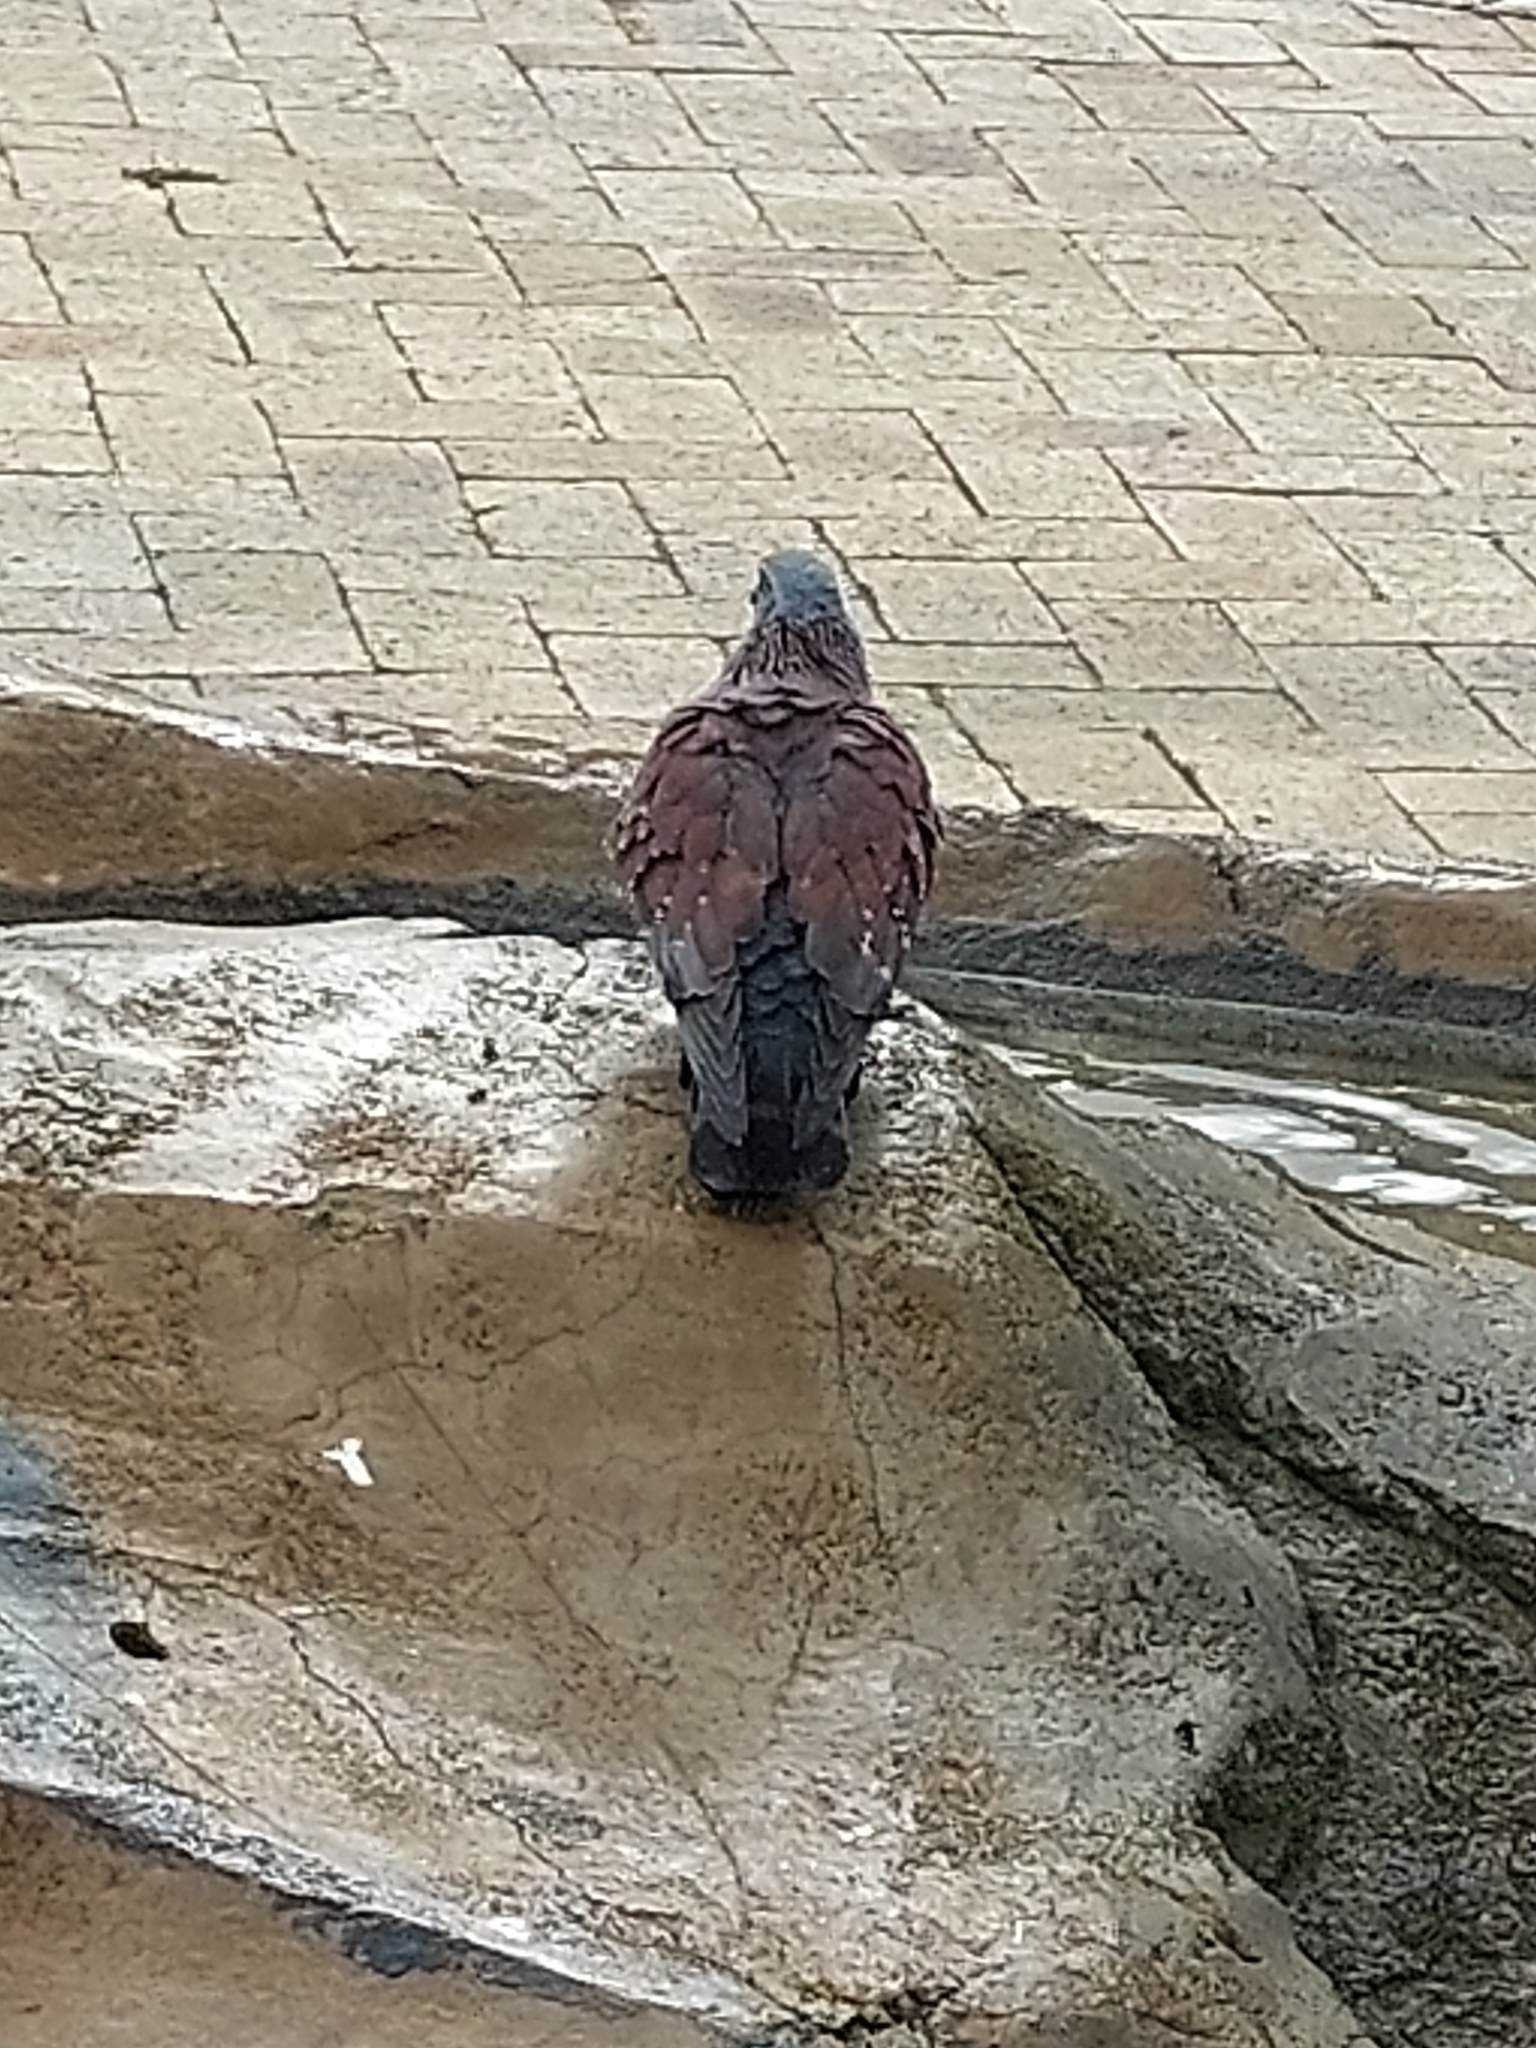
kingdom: Animalia
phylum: Chordata
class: Aves
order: Columbiformes
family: Columbidae
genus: Columba
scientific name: Columba guinea
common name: Speckled pigeon
